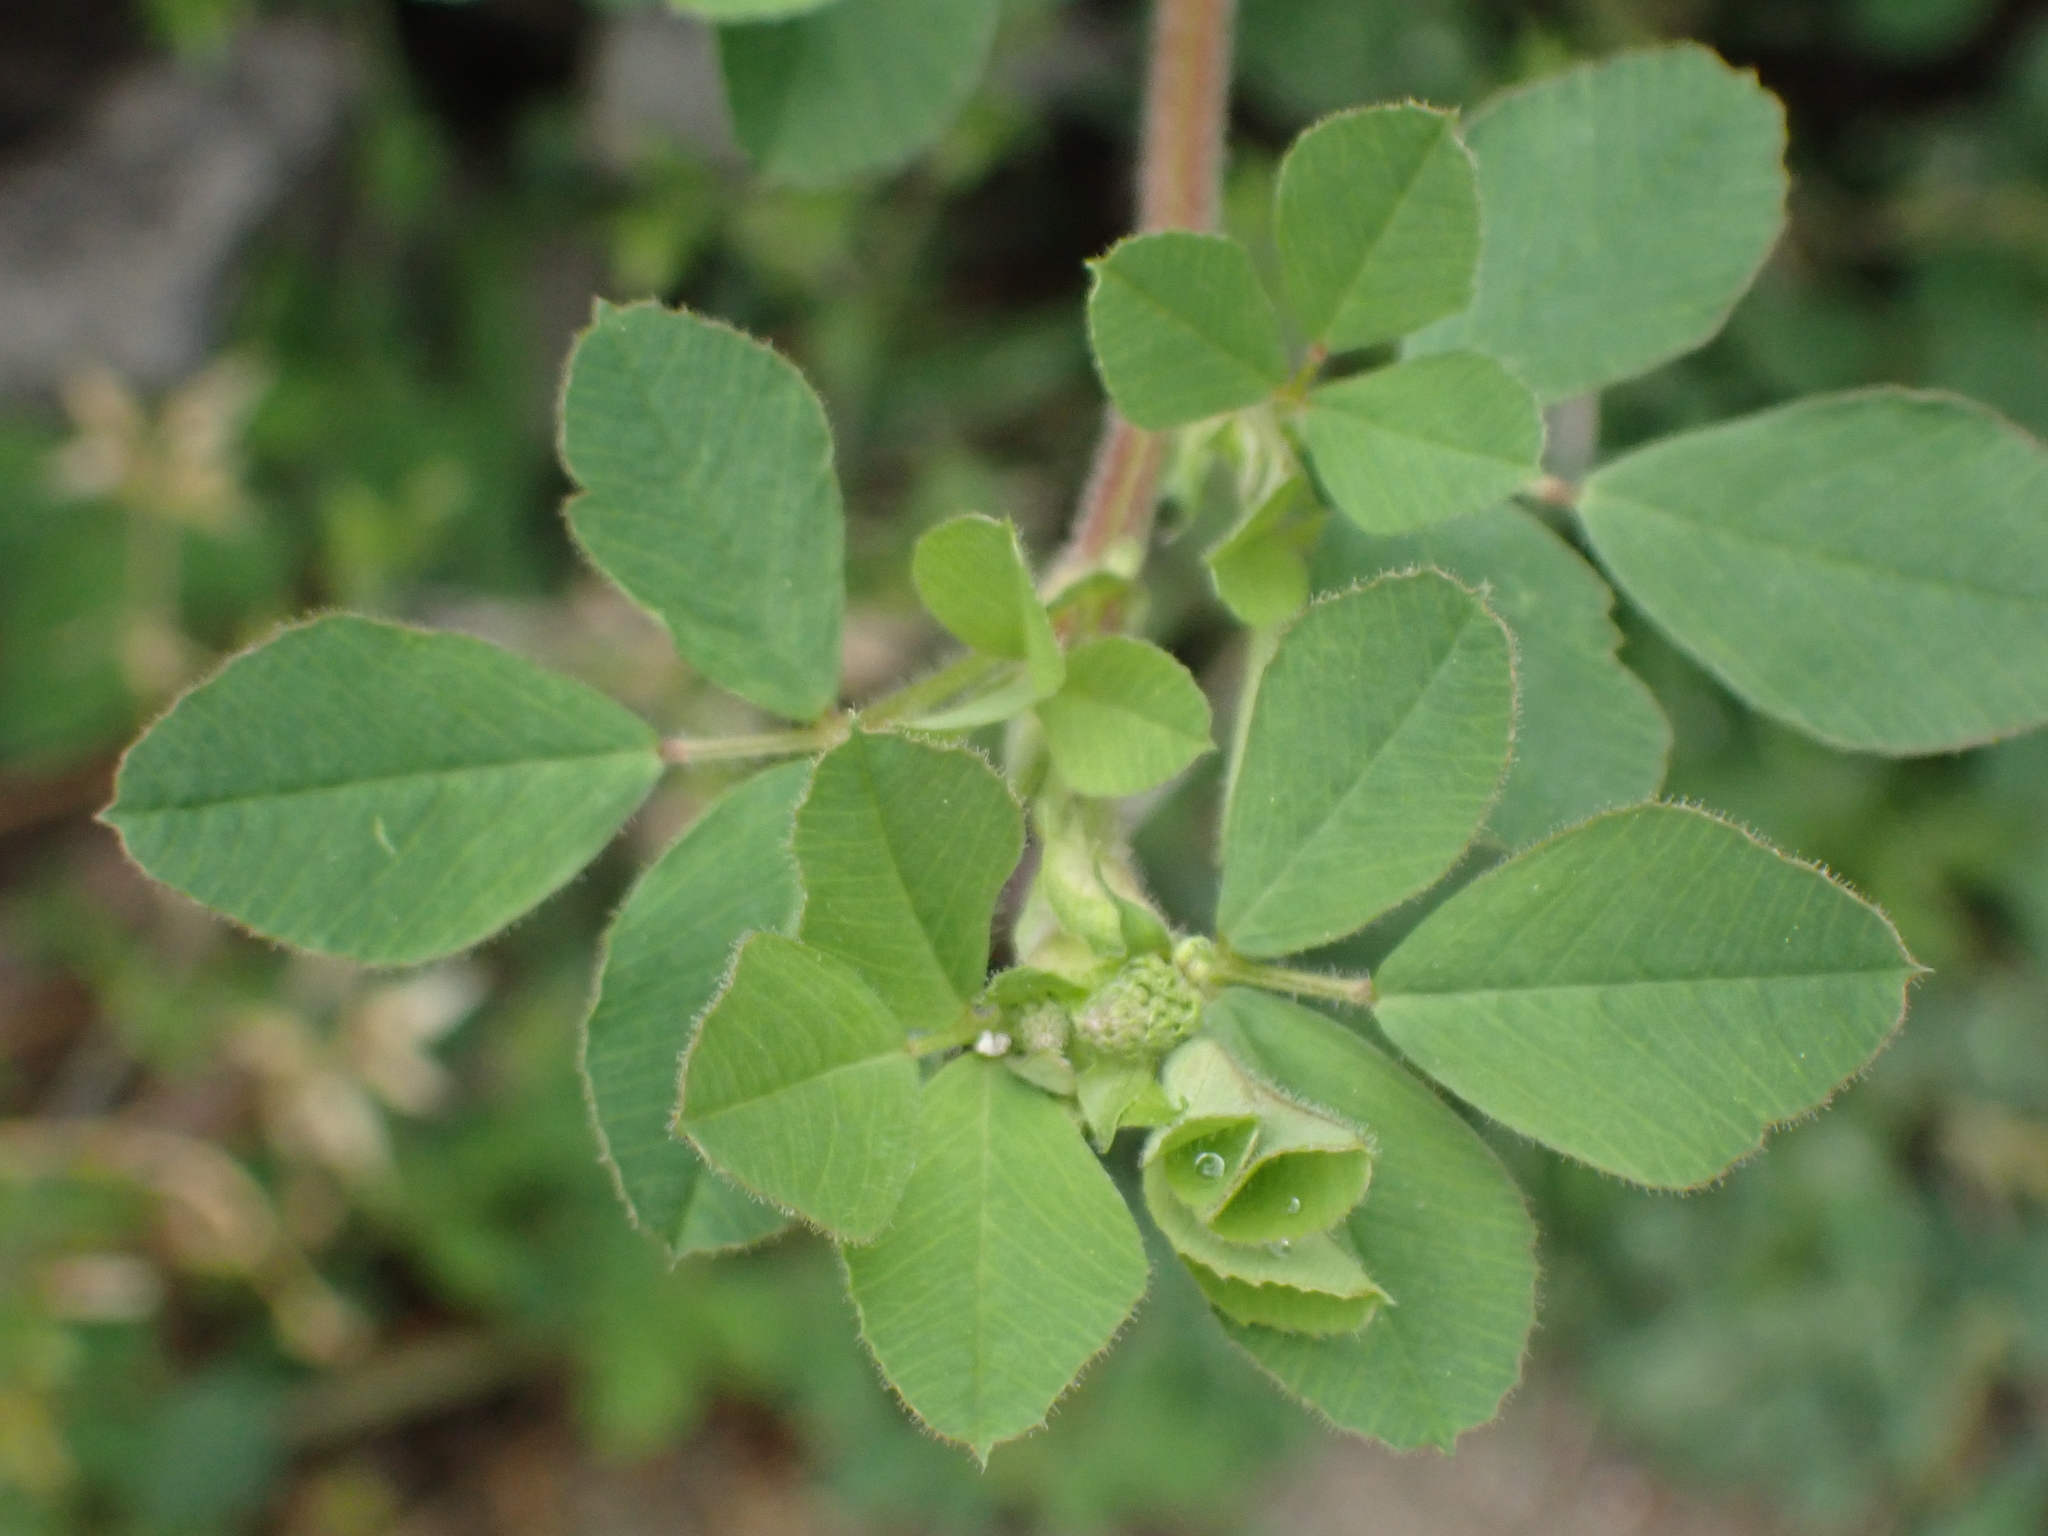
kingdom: Plantae
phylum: Tracheophyta
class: Magnoliopsida
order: Fabales
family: Fabaceae
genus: Medicago
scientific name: Medicago lupulina
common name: Black medick
